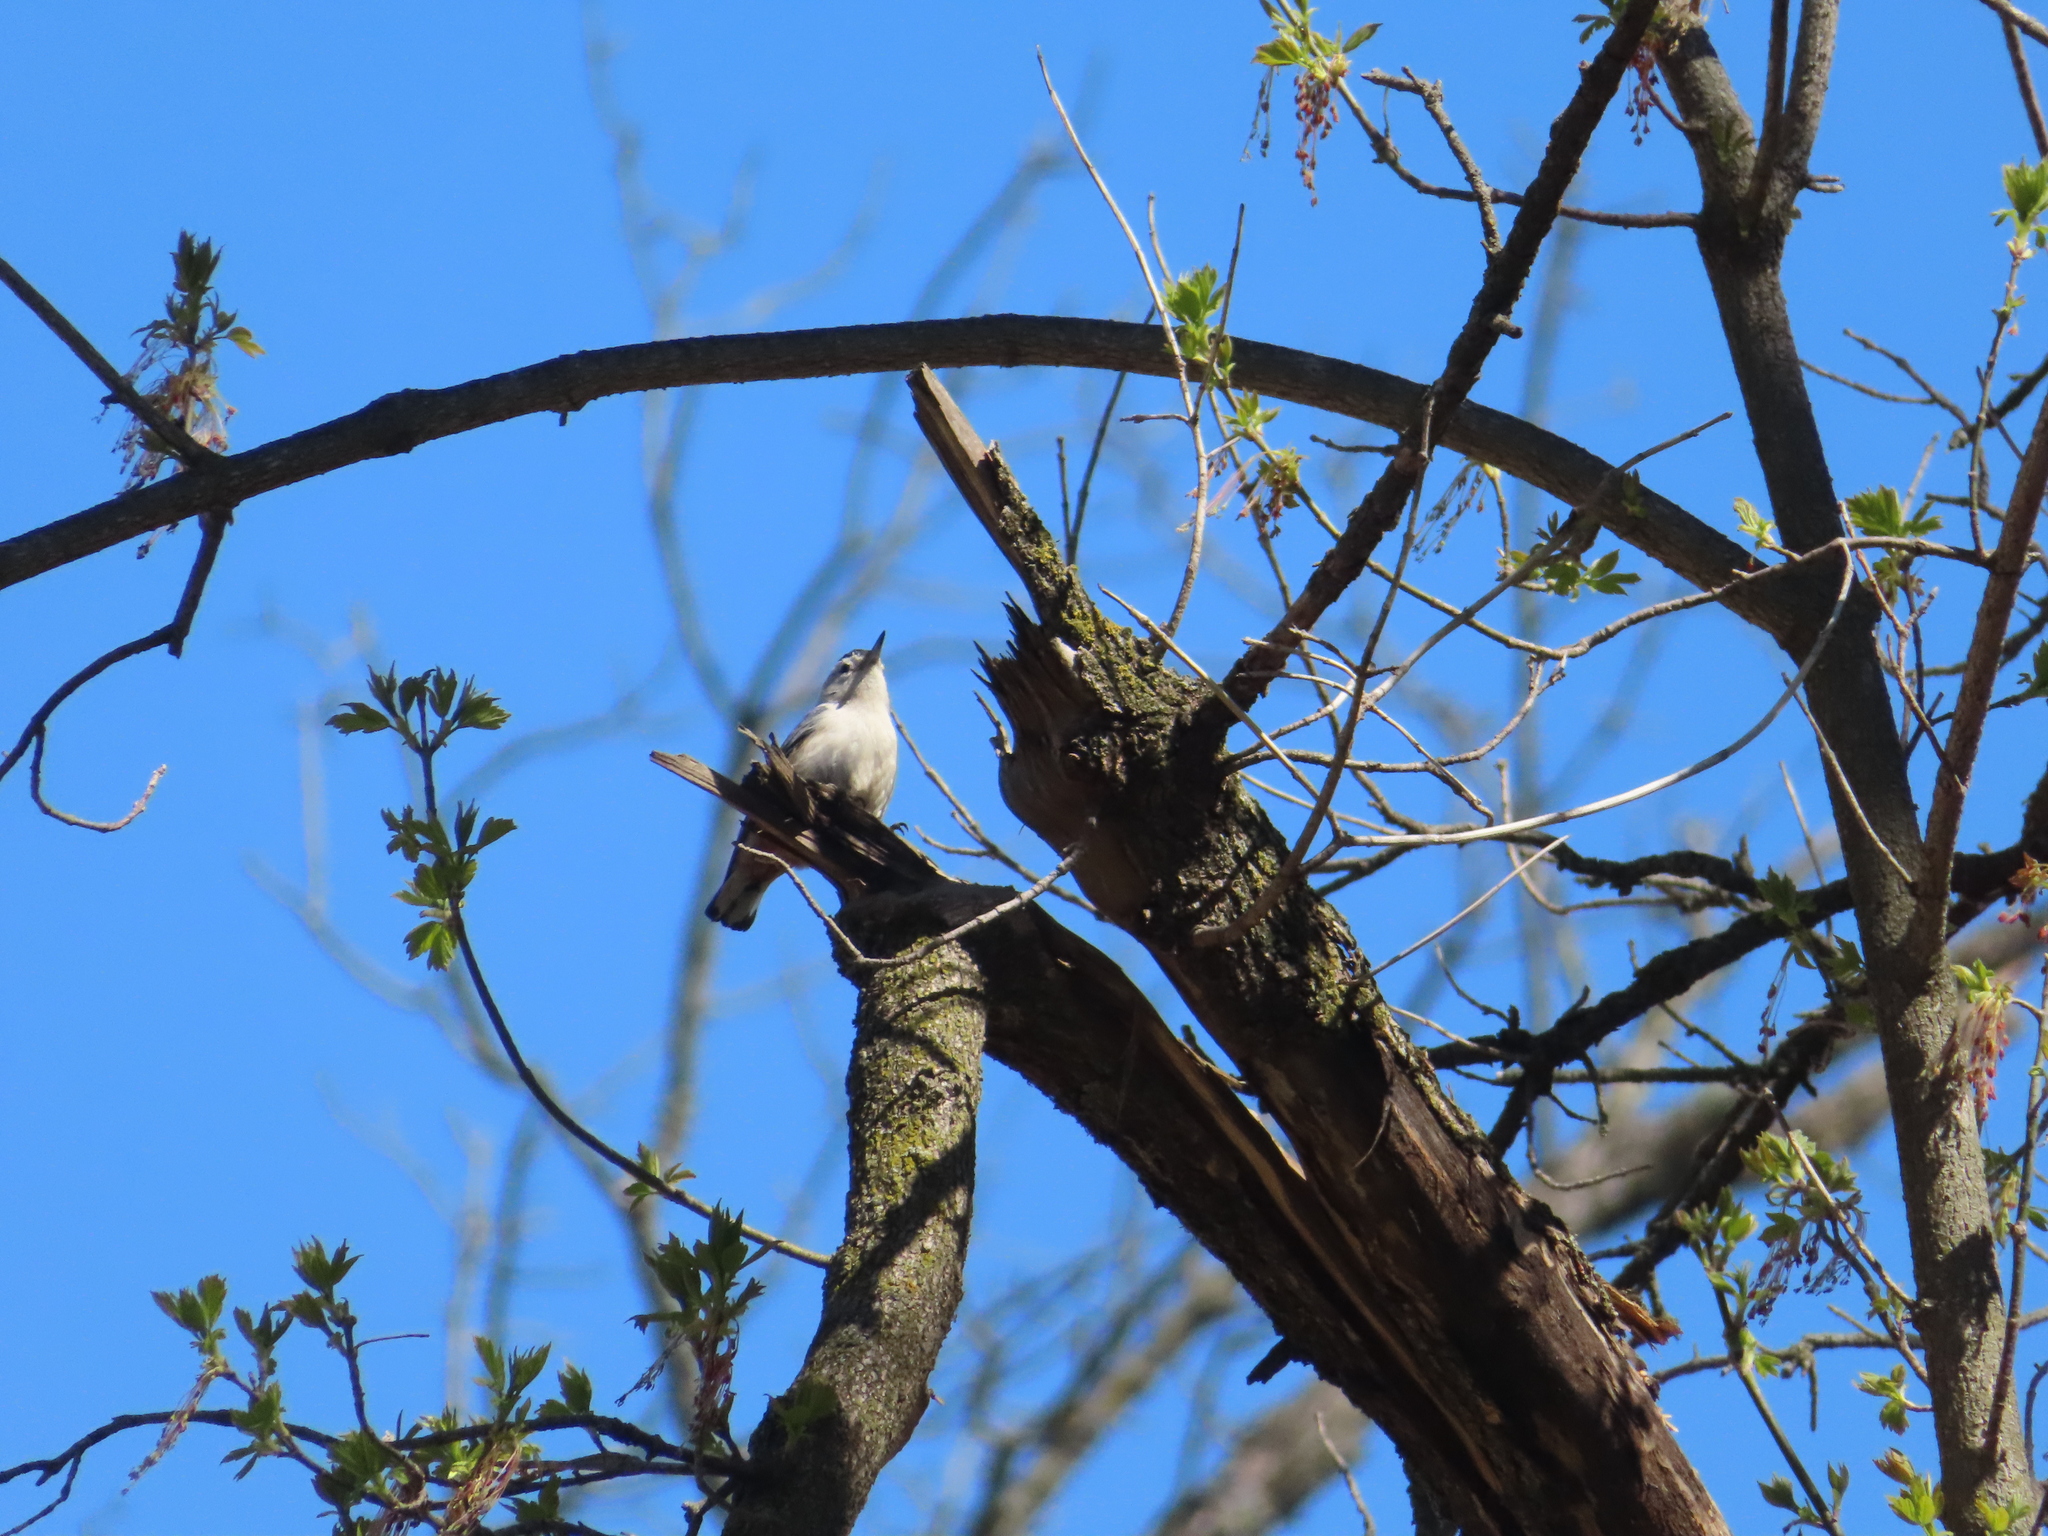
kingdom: Animalia
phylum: Chordata
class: Aves
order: Passeriformes
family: Sittidae
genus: Sitta
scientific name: Sitta carolinensis
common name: White-breasted nuthatch
